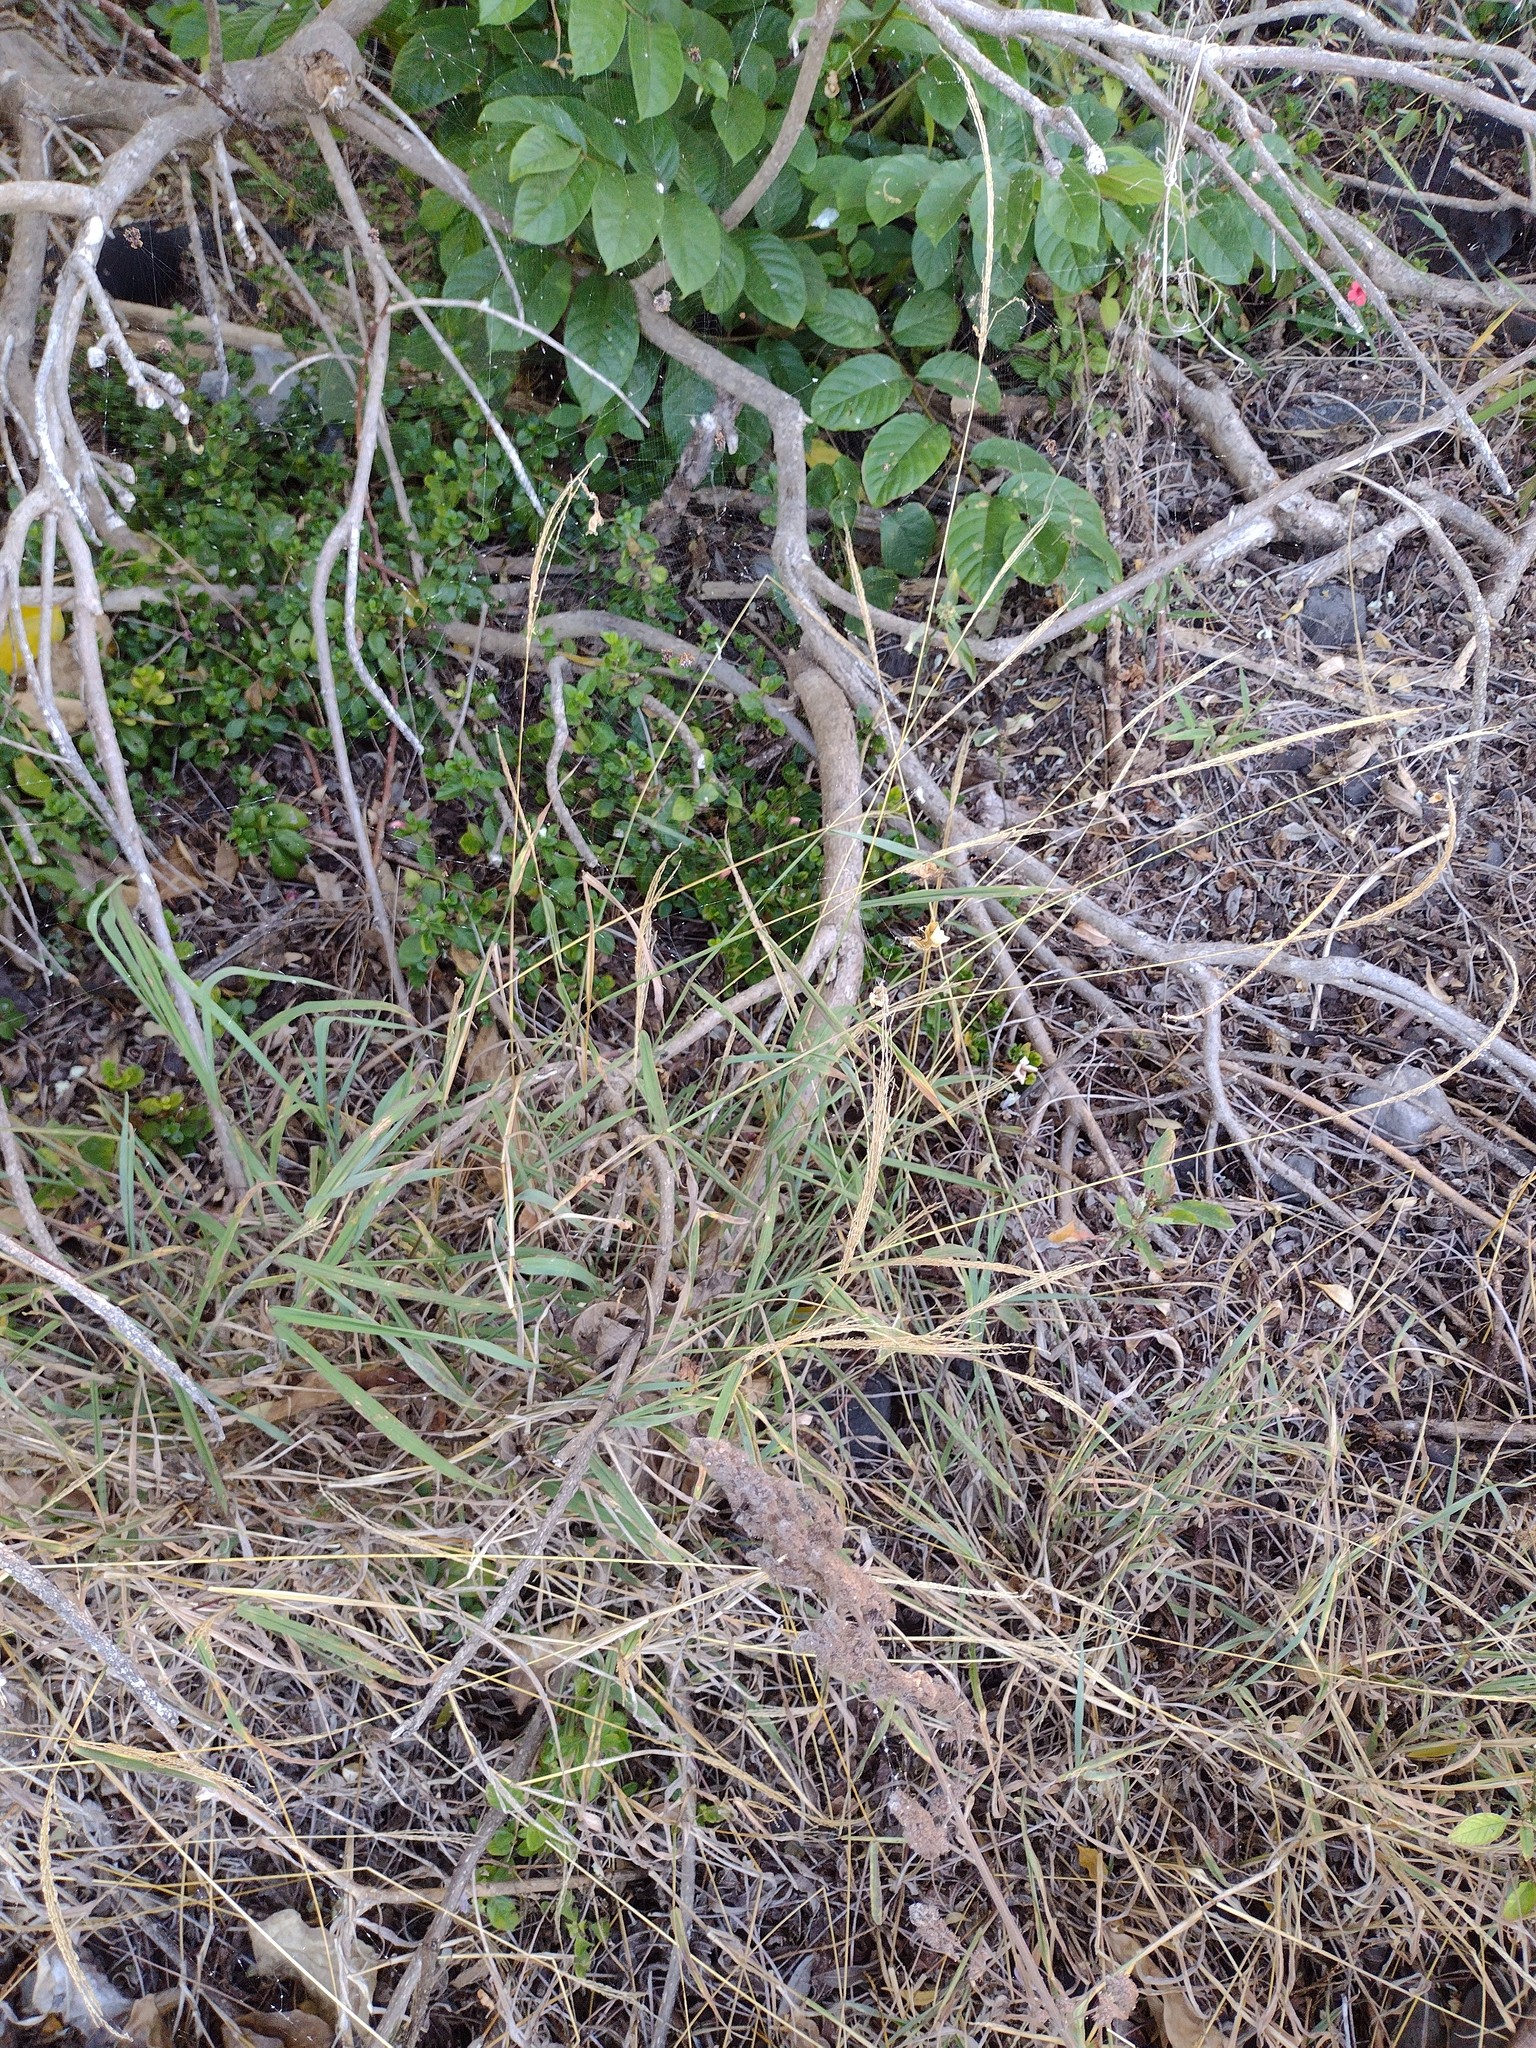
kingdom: Plantae
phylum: Tracheophyta
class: Liliopsida
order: Poales
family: Poaceae
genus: Megathyrsus
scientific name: Megathyrsus maximus
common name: Guineagrass
